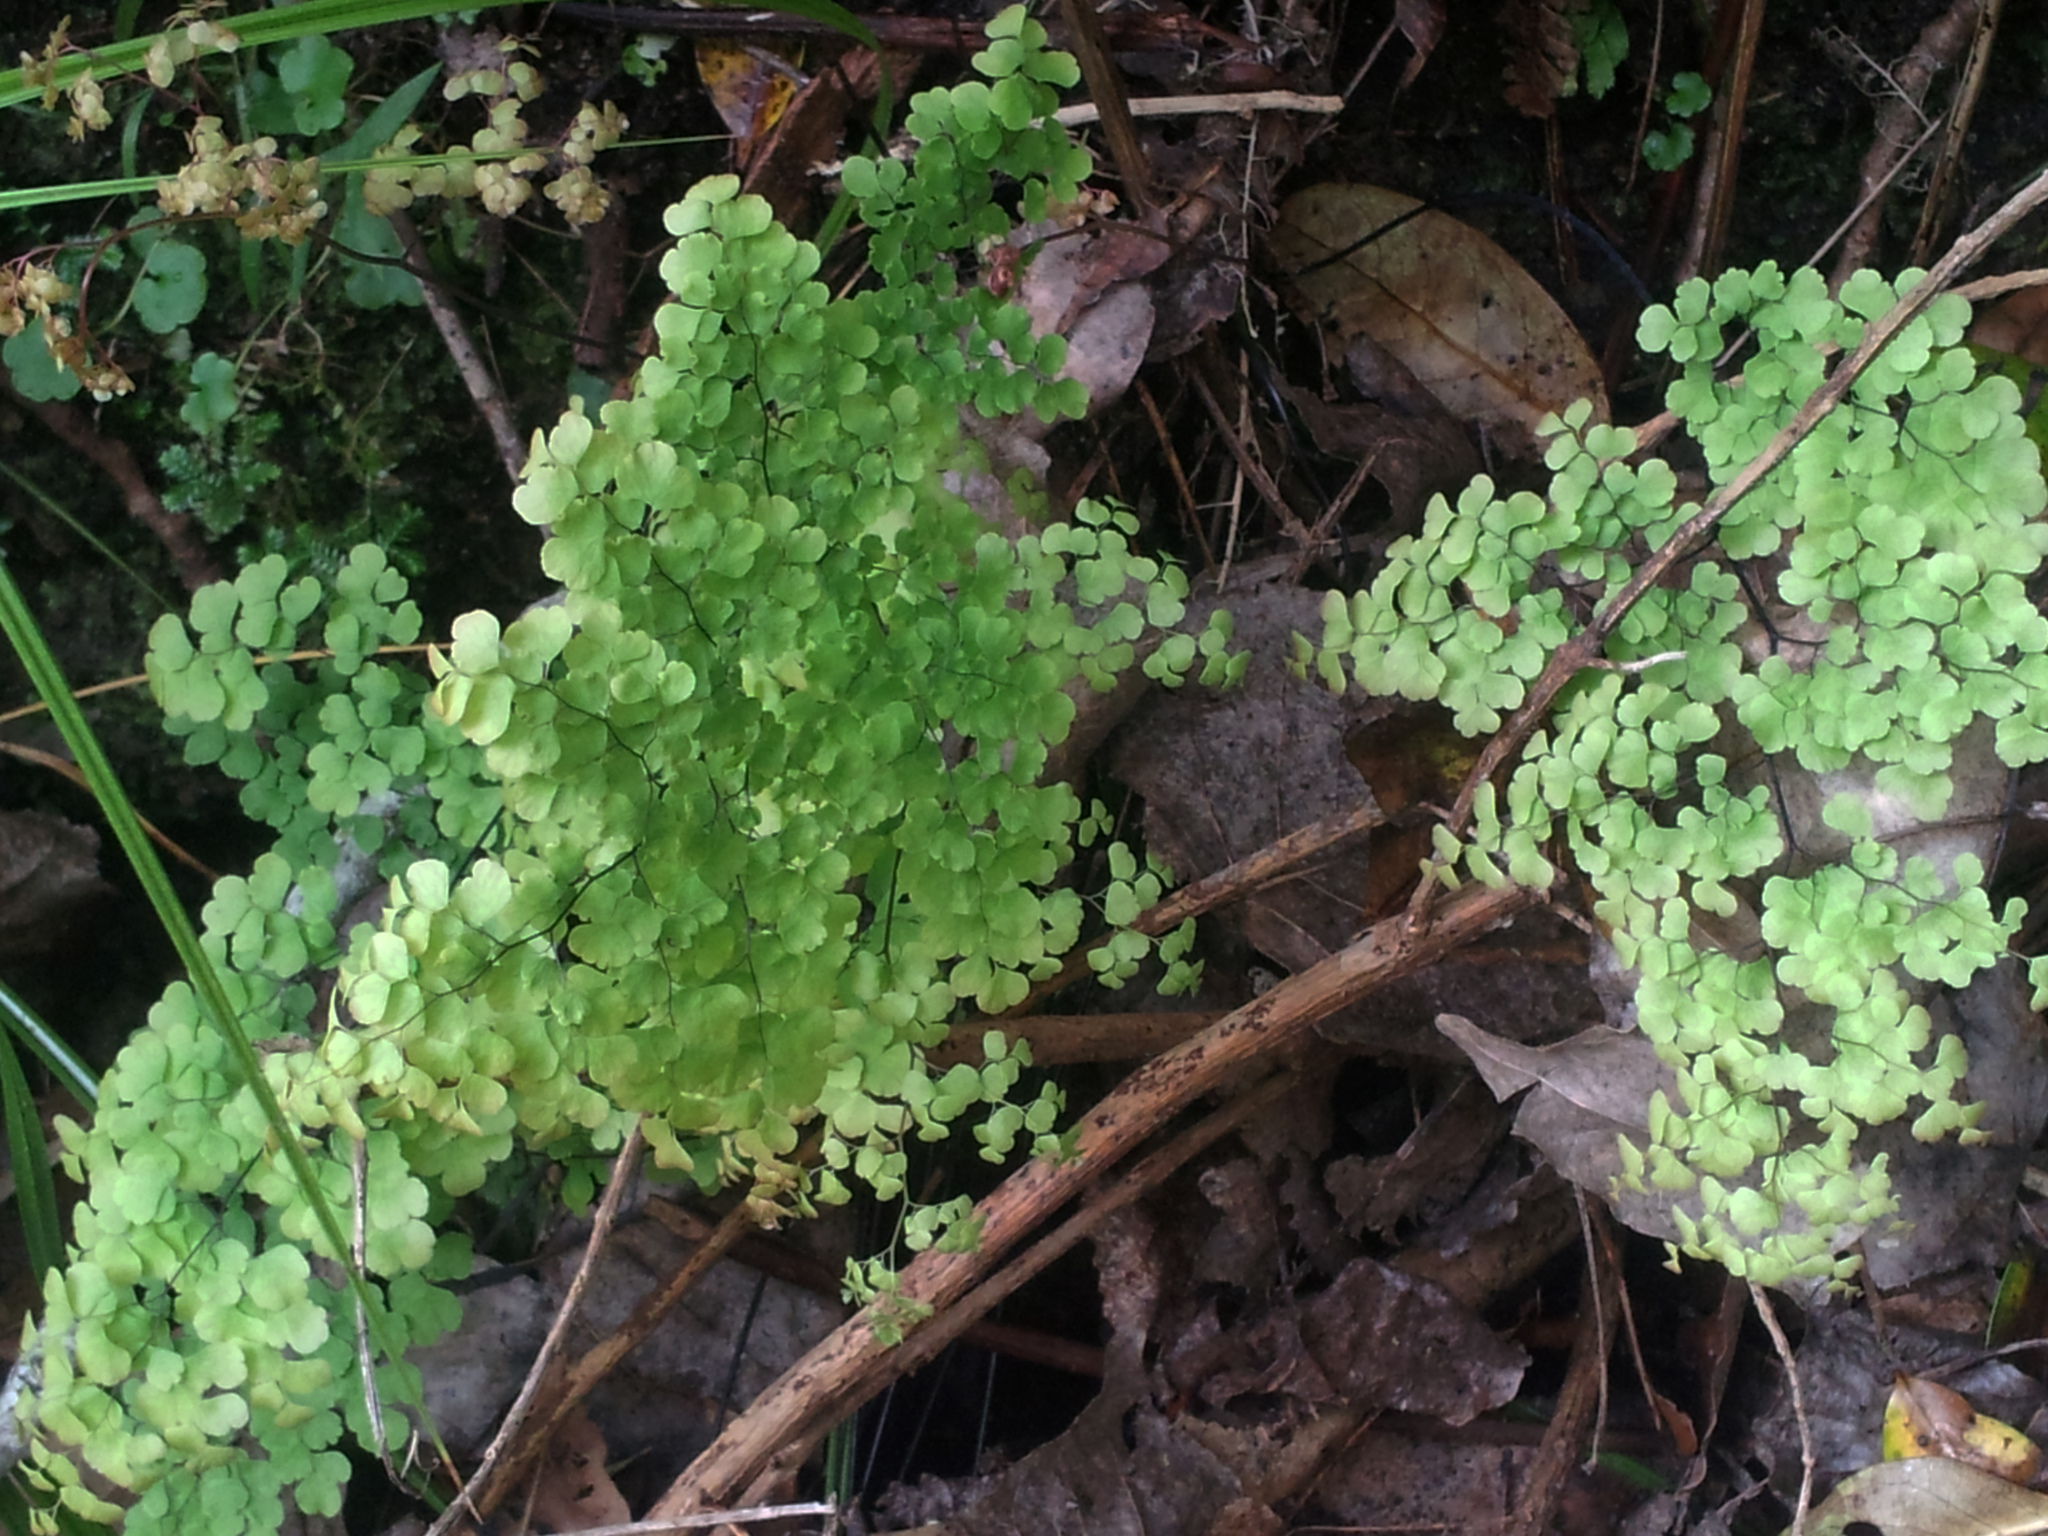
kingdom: Plantae
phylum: Tracheophyta
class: Polypodiopsida
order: Polypodiales
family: Pteridaceae
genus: Adiantum
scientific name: Adiantum raddianum
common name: Delta maidenhair fern
